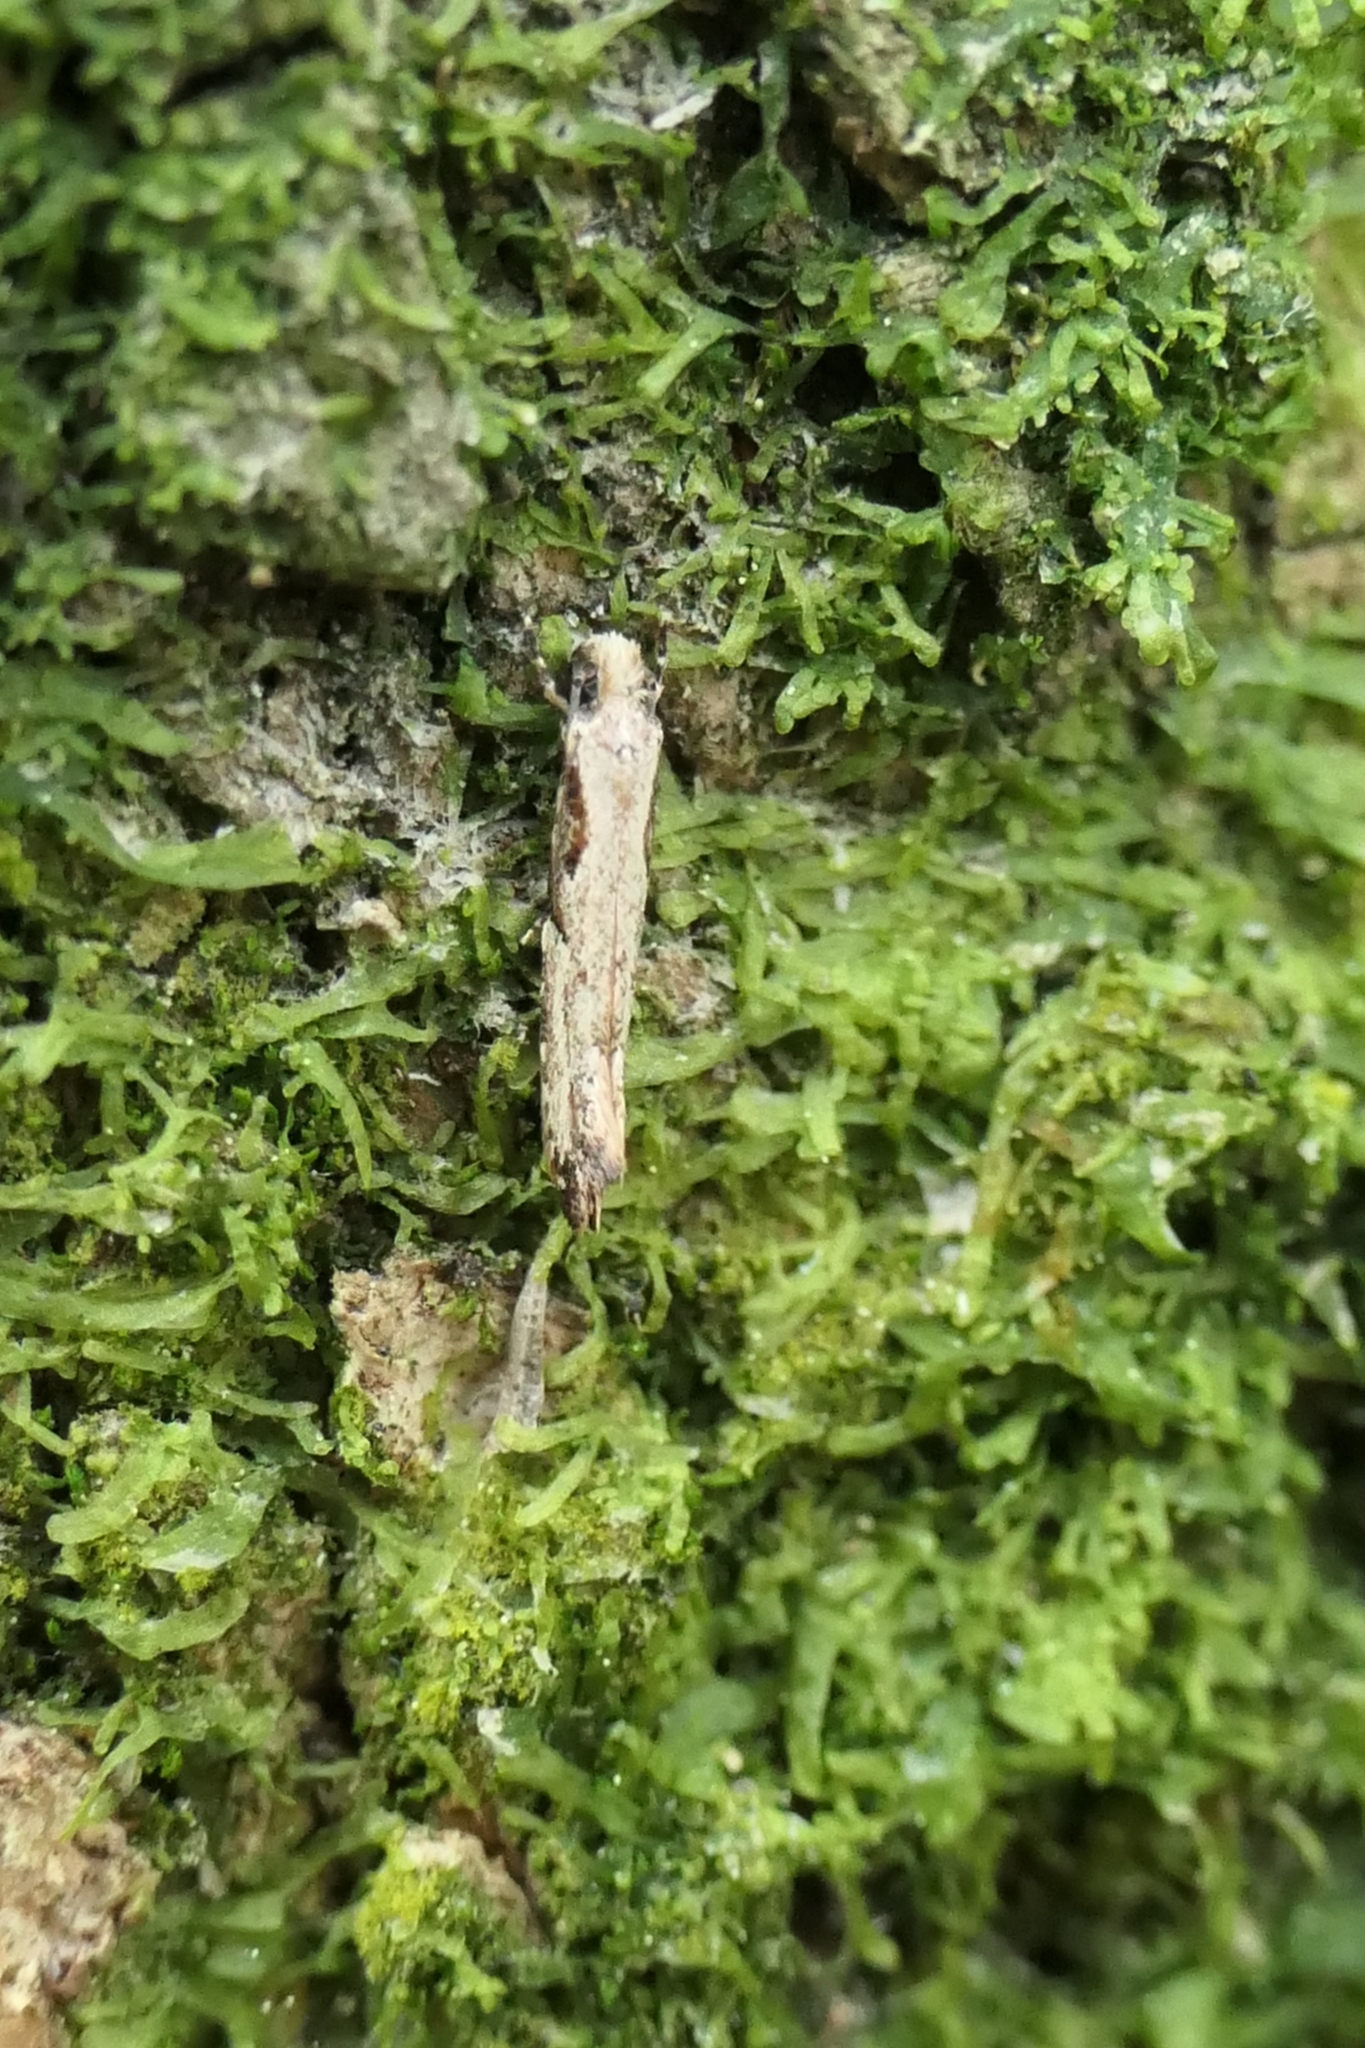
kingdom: Animalia
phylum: Arthropoda
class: Insecta
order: Lepidoptera
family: Tineidae
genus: Crypsitricha
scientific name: Crypsitricha mesotypa
